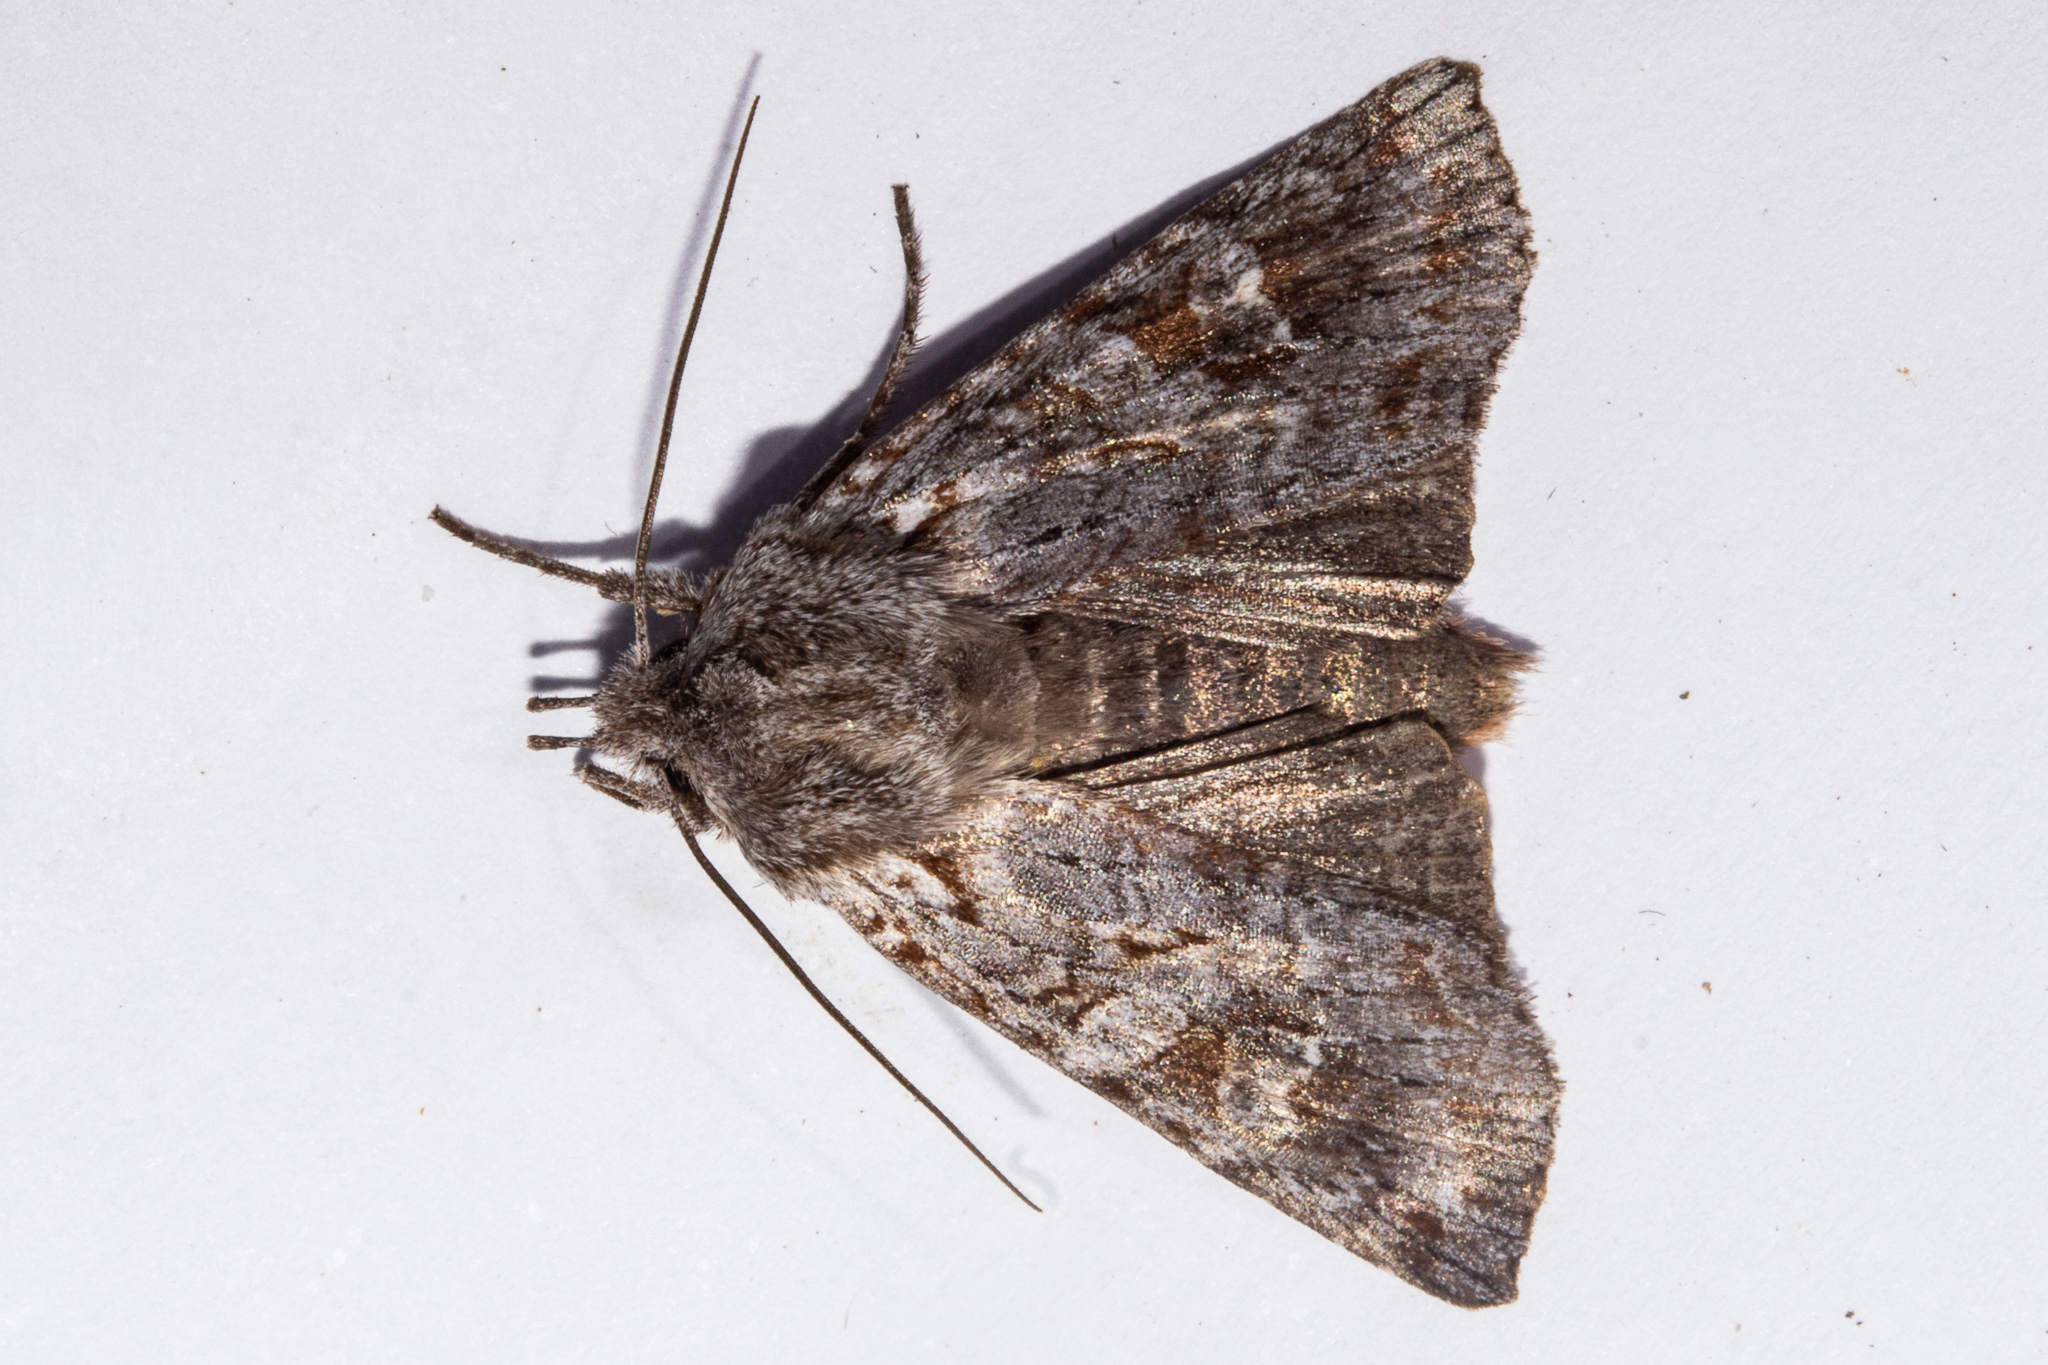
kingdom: Animalia
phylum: Arthropoda
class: Insecta
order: Lepidoptera
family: Noctuidae
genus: Physetica
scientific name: Physetica longstaffii
